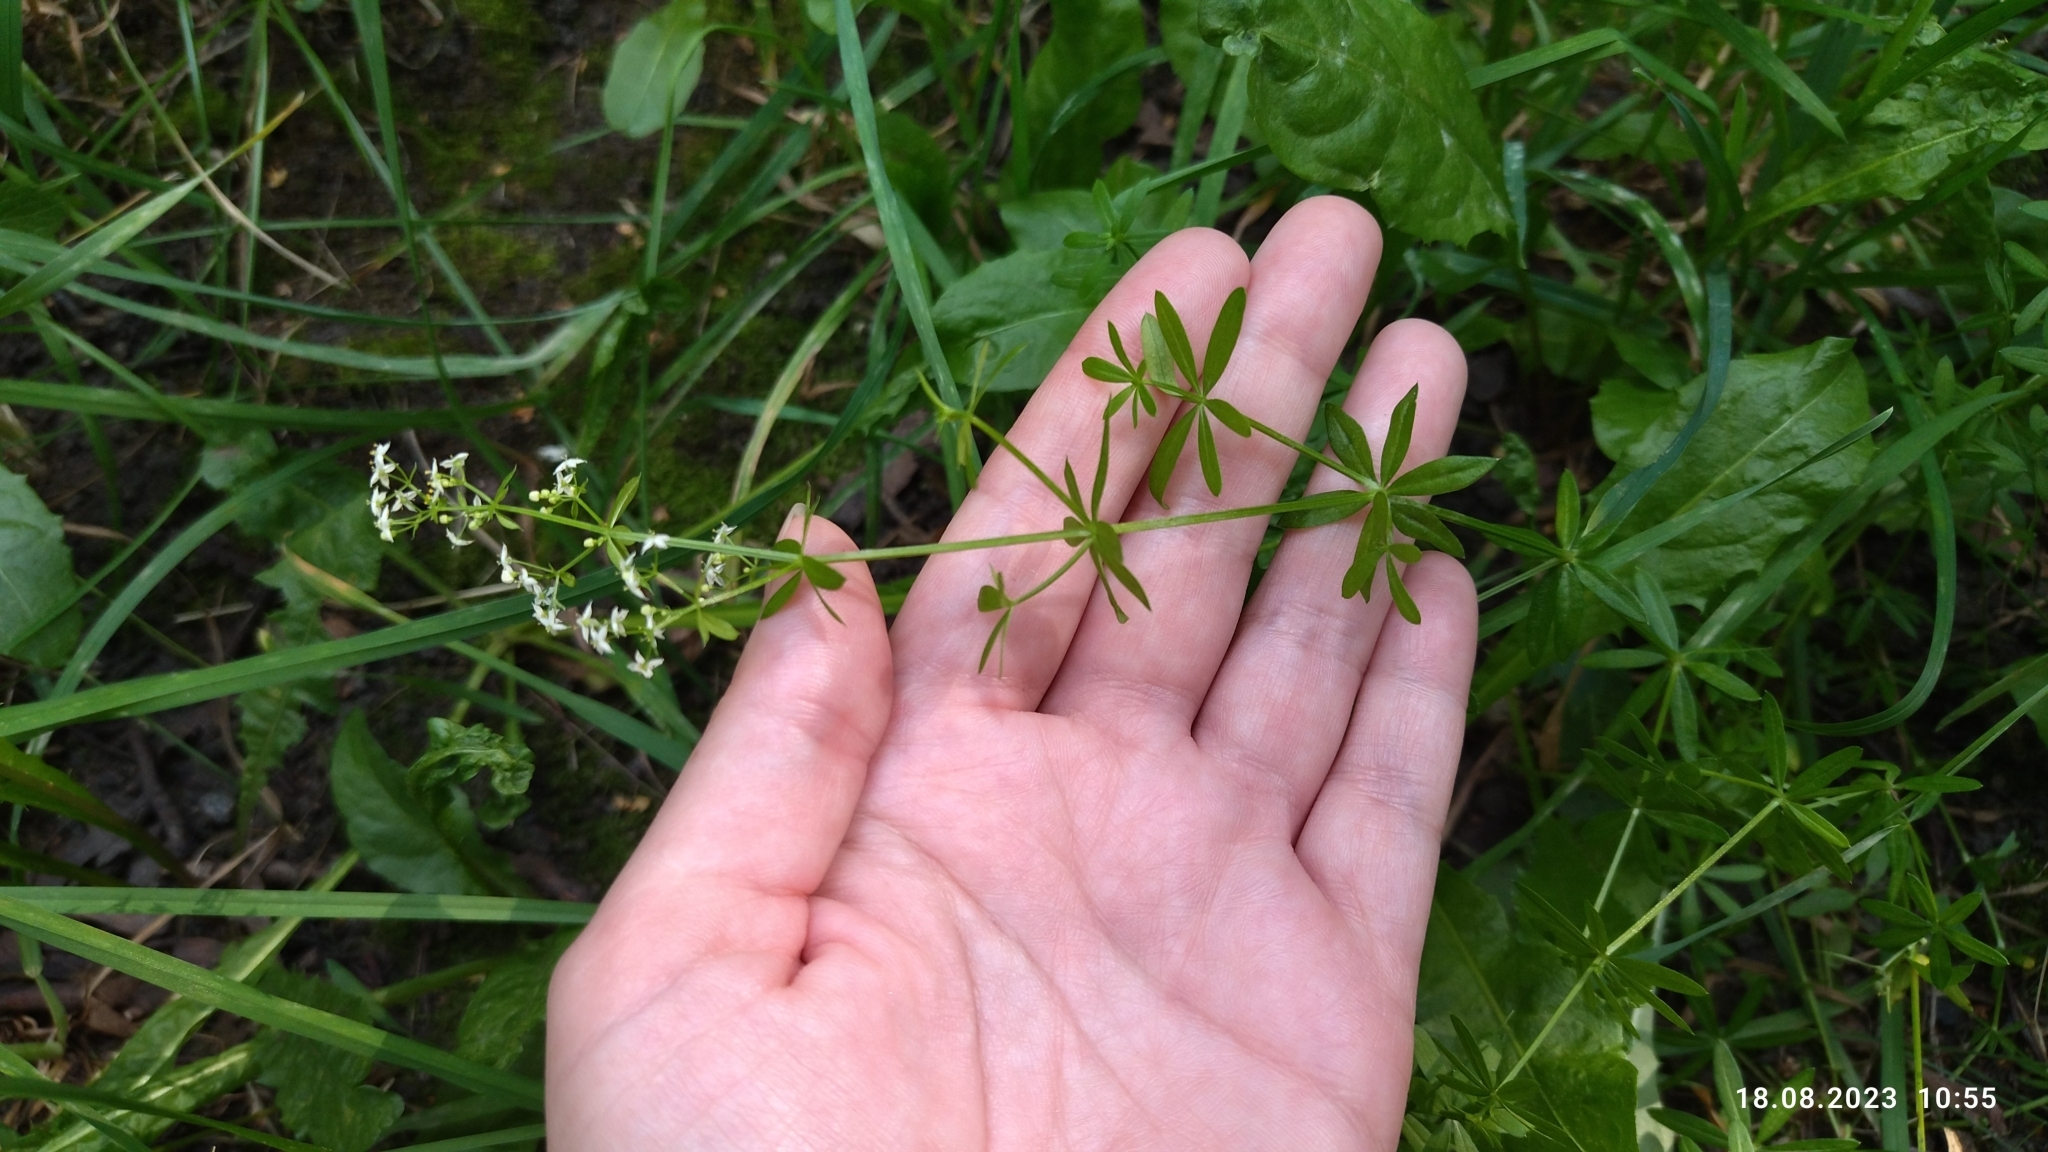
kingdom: Plantae
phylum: Tracheophyta
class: Magnoliopsida
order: Gentianales
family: Rubiaceae
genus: Galium
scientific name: Galium mollugo
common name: Hedge bedstraw
